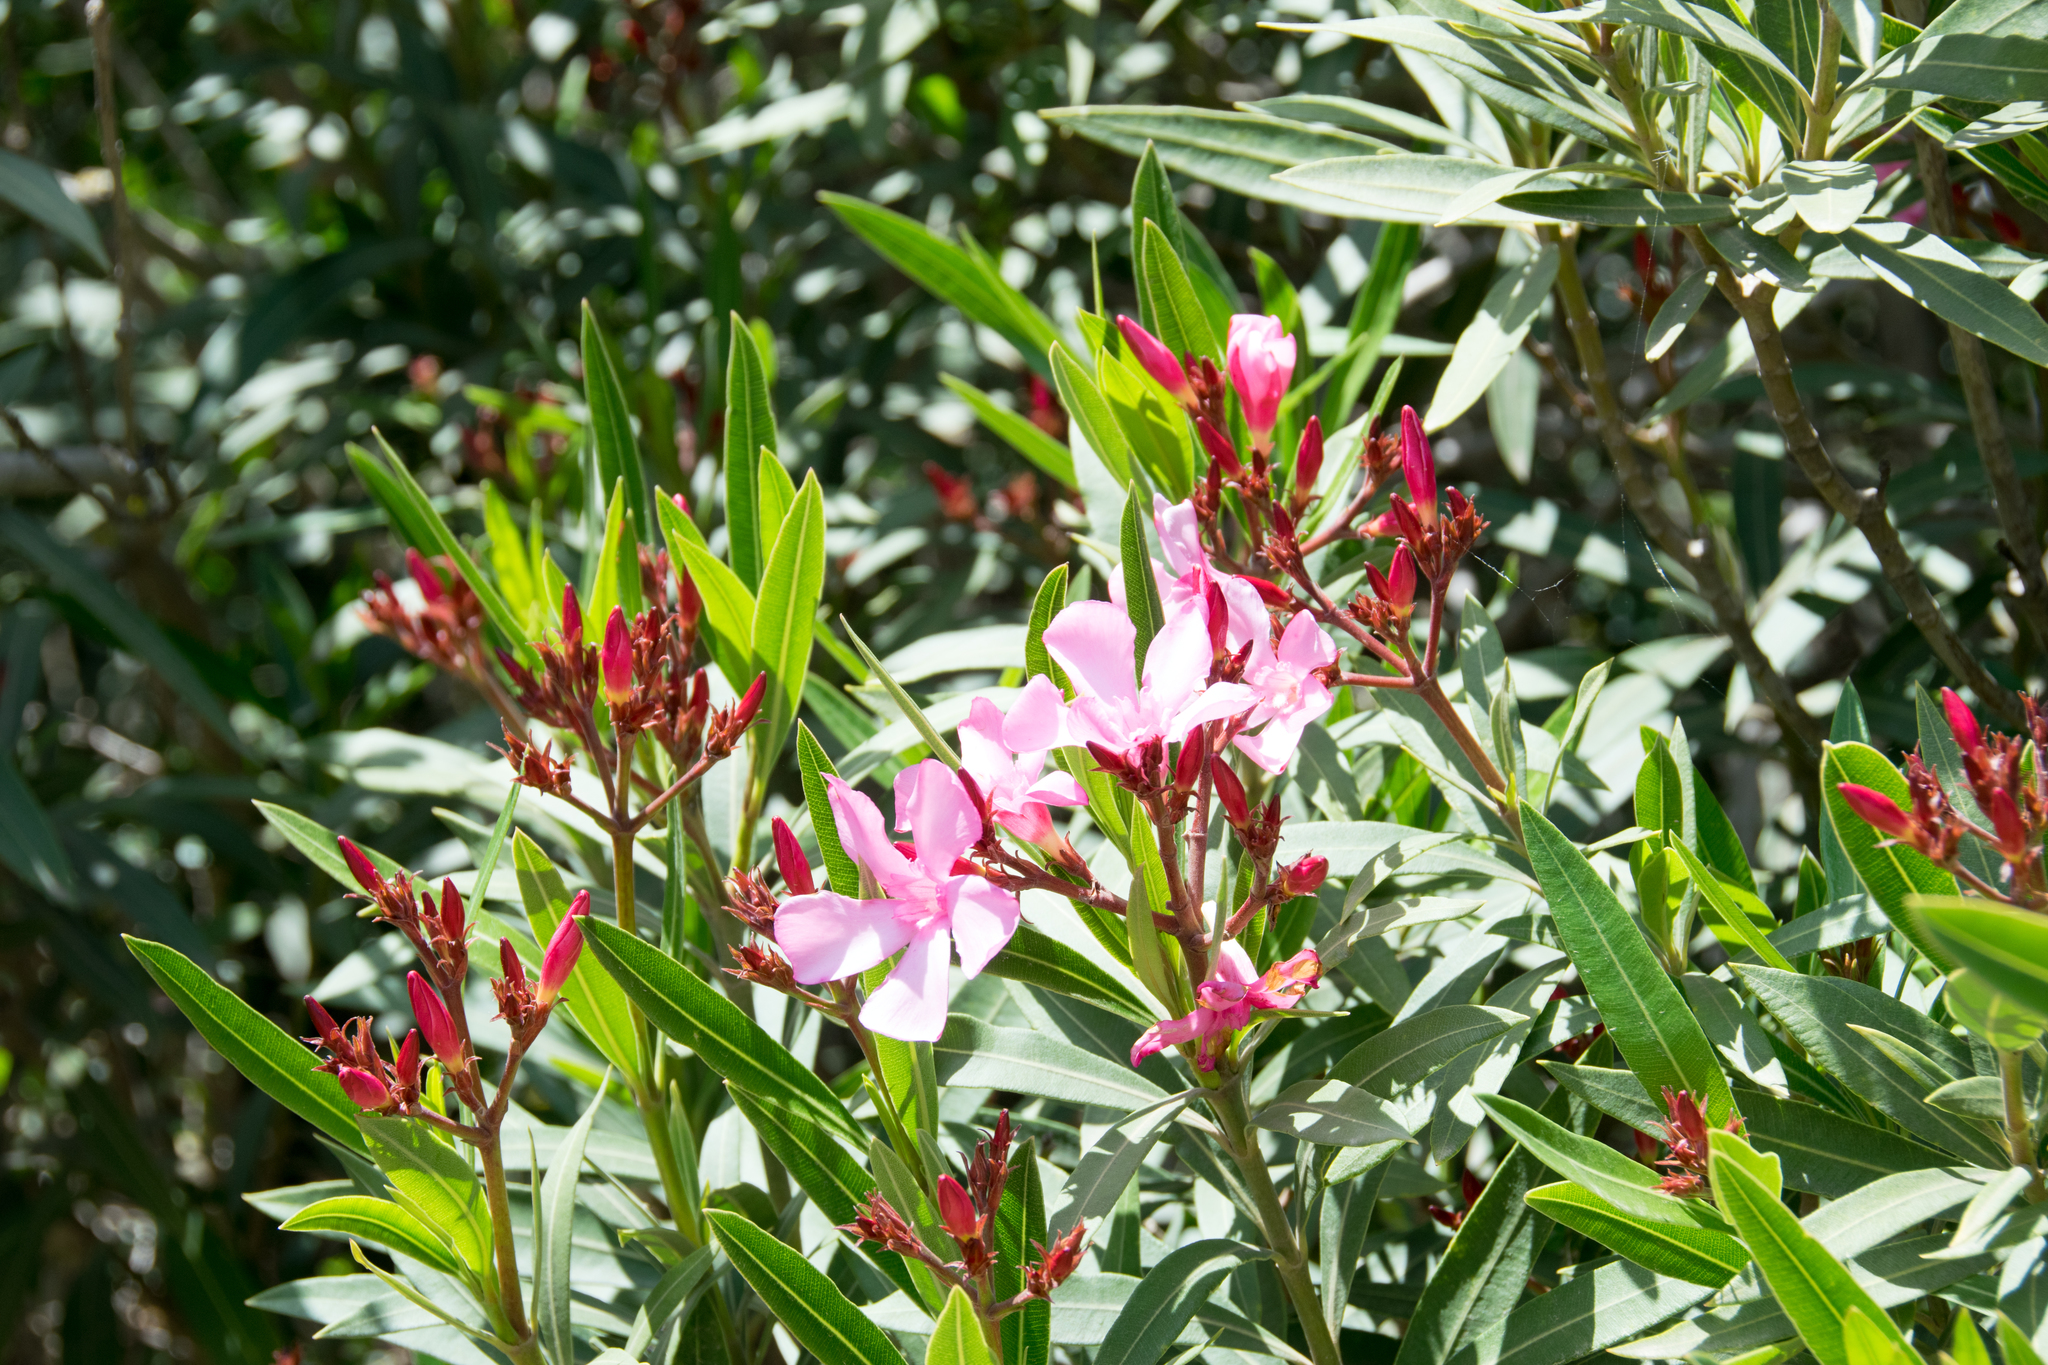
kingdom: Plantae
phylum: Tracheophyta
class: Magnoliopsida
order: Gentianales
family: Apocynaceae
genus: Nerium
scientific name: Nerium oleander
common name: Oleander
